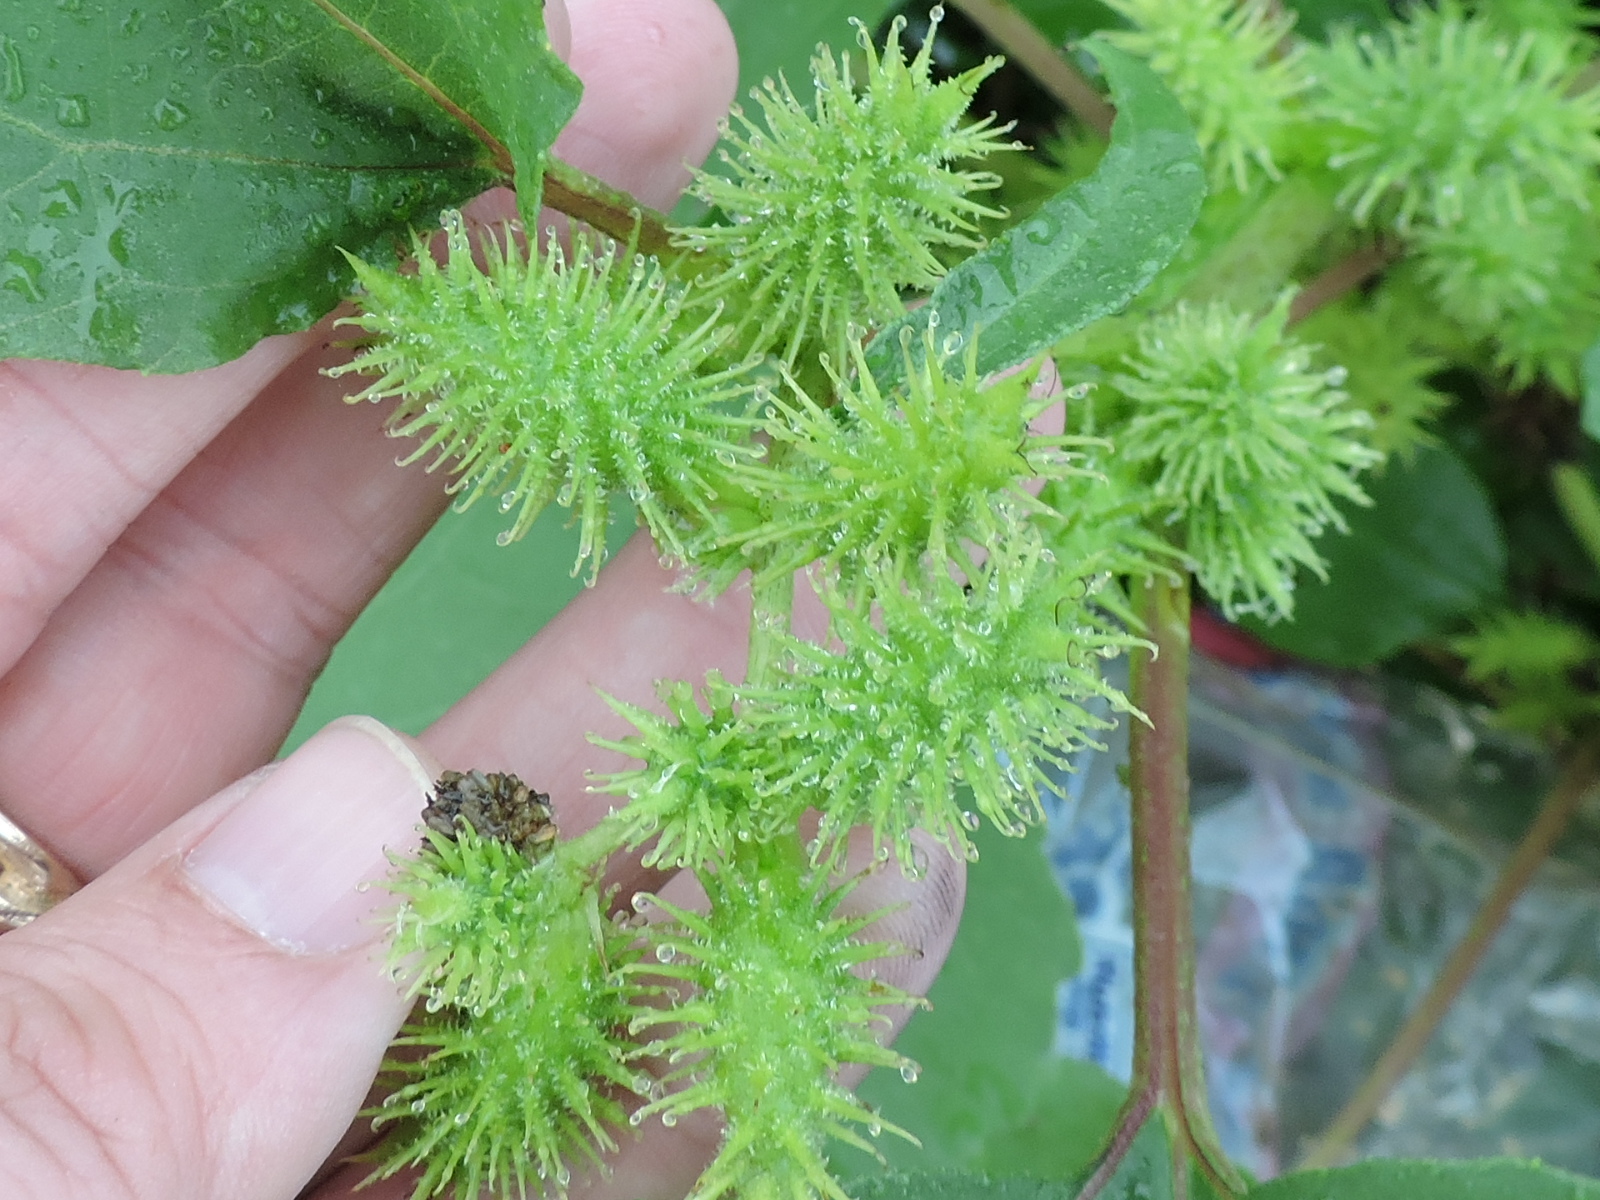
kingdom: Plantae
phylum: Tracheophyta
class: Magnoliopsida
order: Asterales
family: Asteraceae
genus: Xanthium
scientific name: Xanthium strumarium
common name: Rough cocklebur
